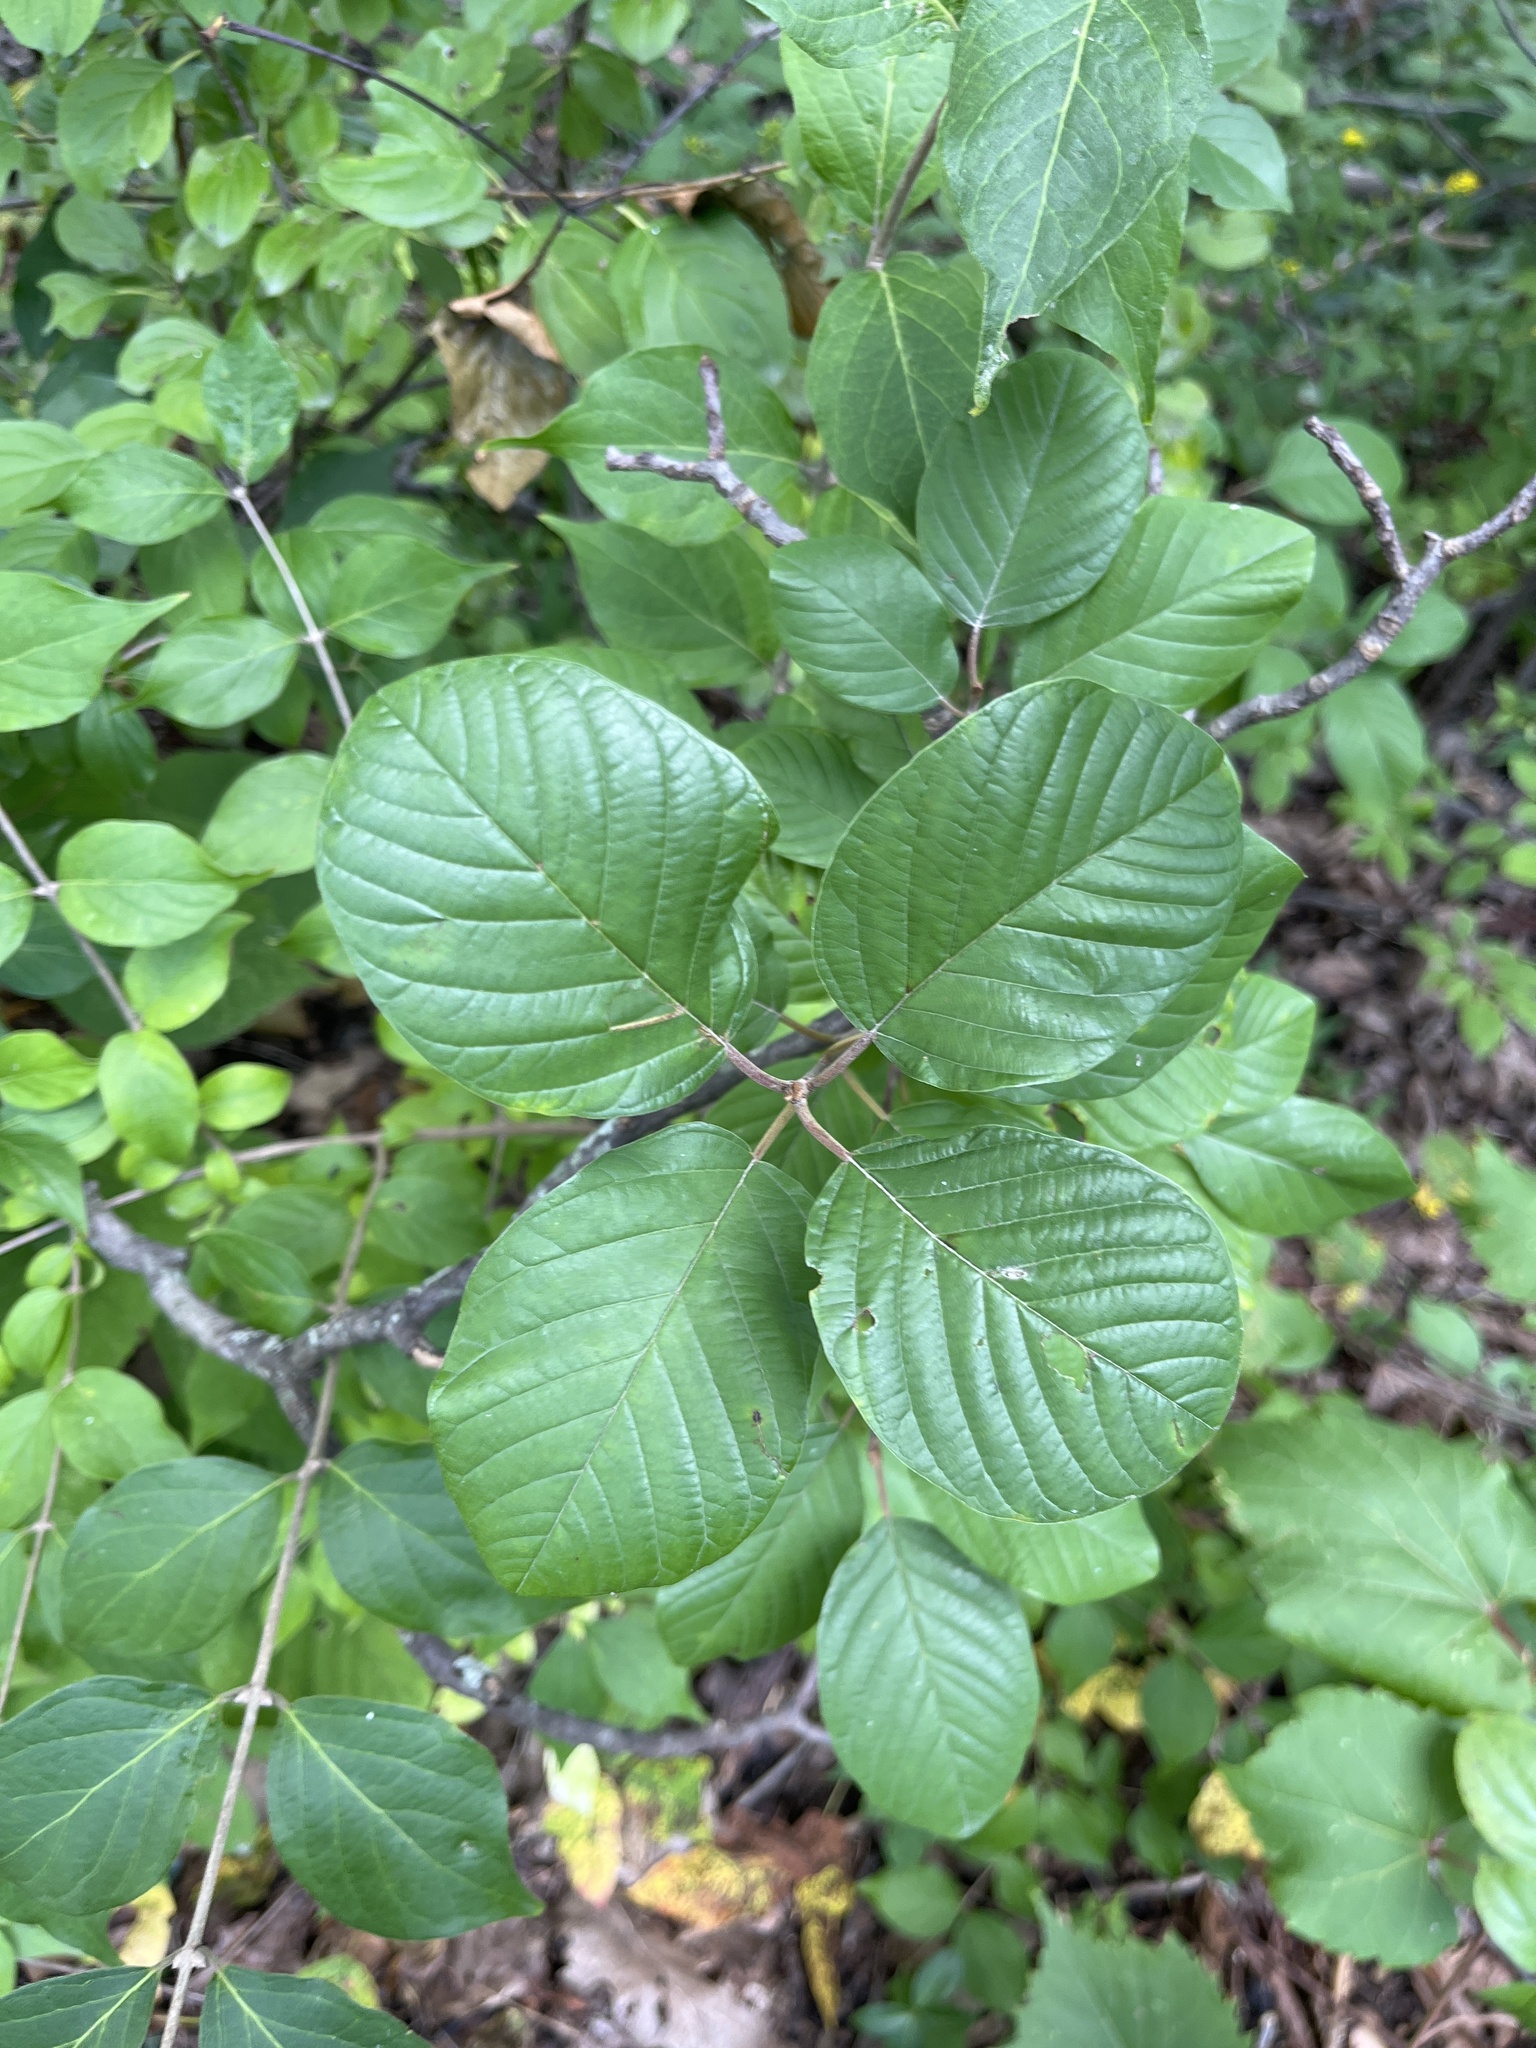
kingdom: Plantae
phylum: Tracheophyta
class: Magnoliopsida
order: Rosales
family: Rhamnaceae
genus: Frangula
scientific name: Frangula alnus
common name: Alder buckthorn
